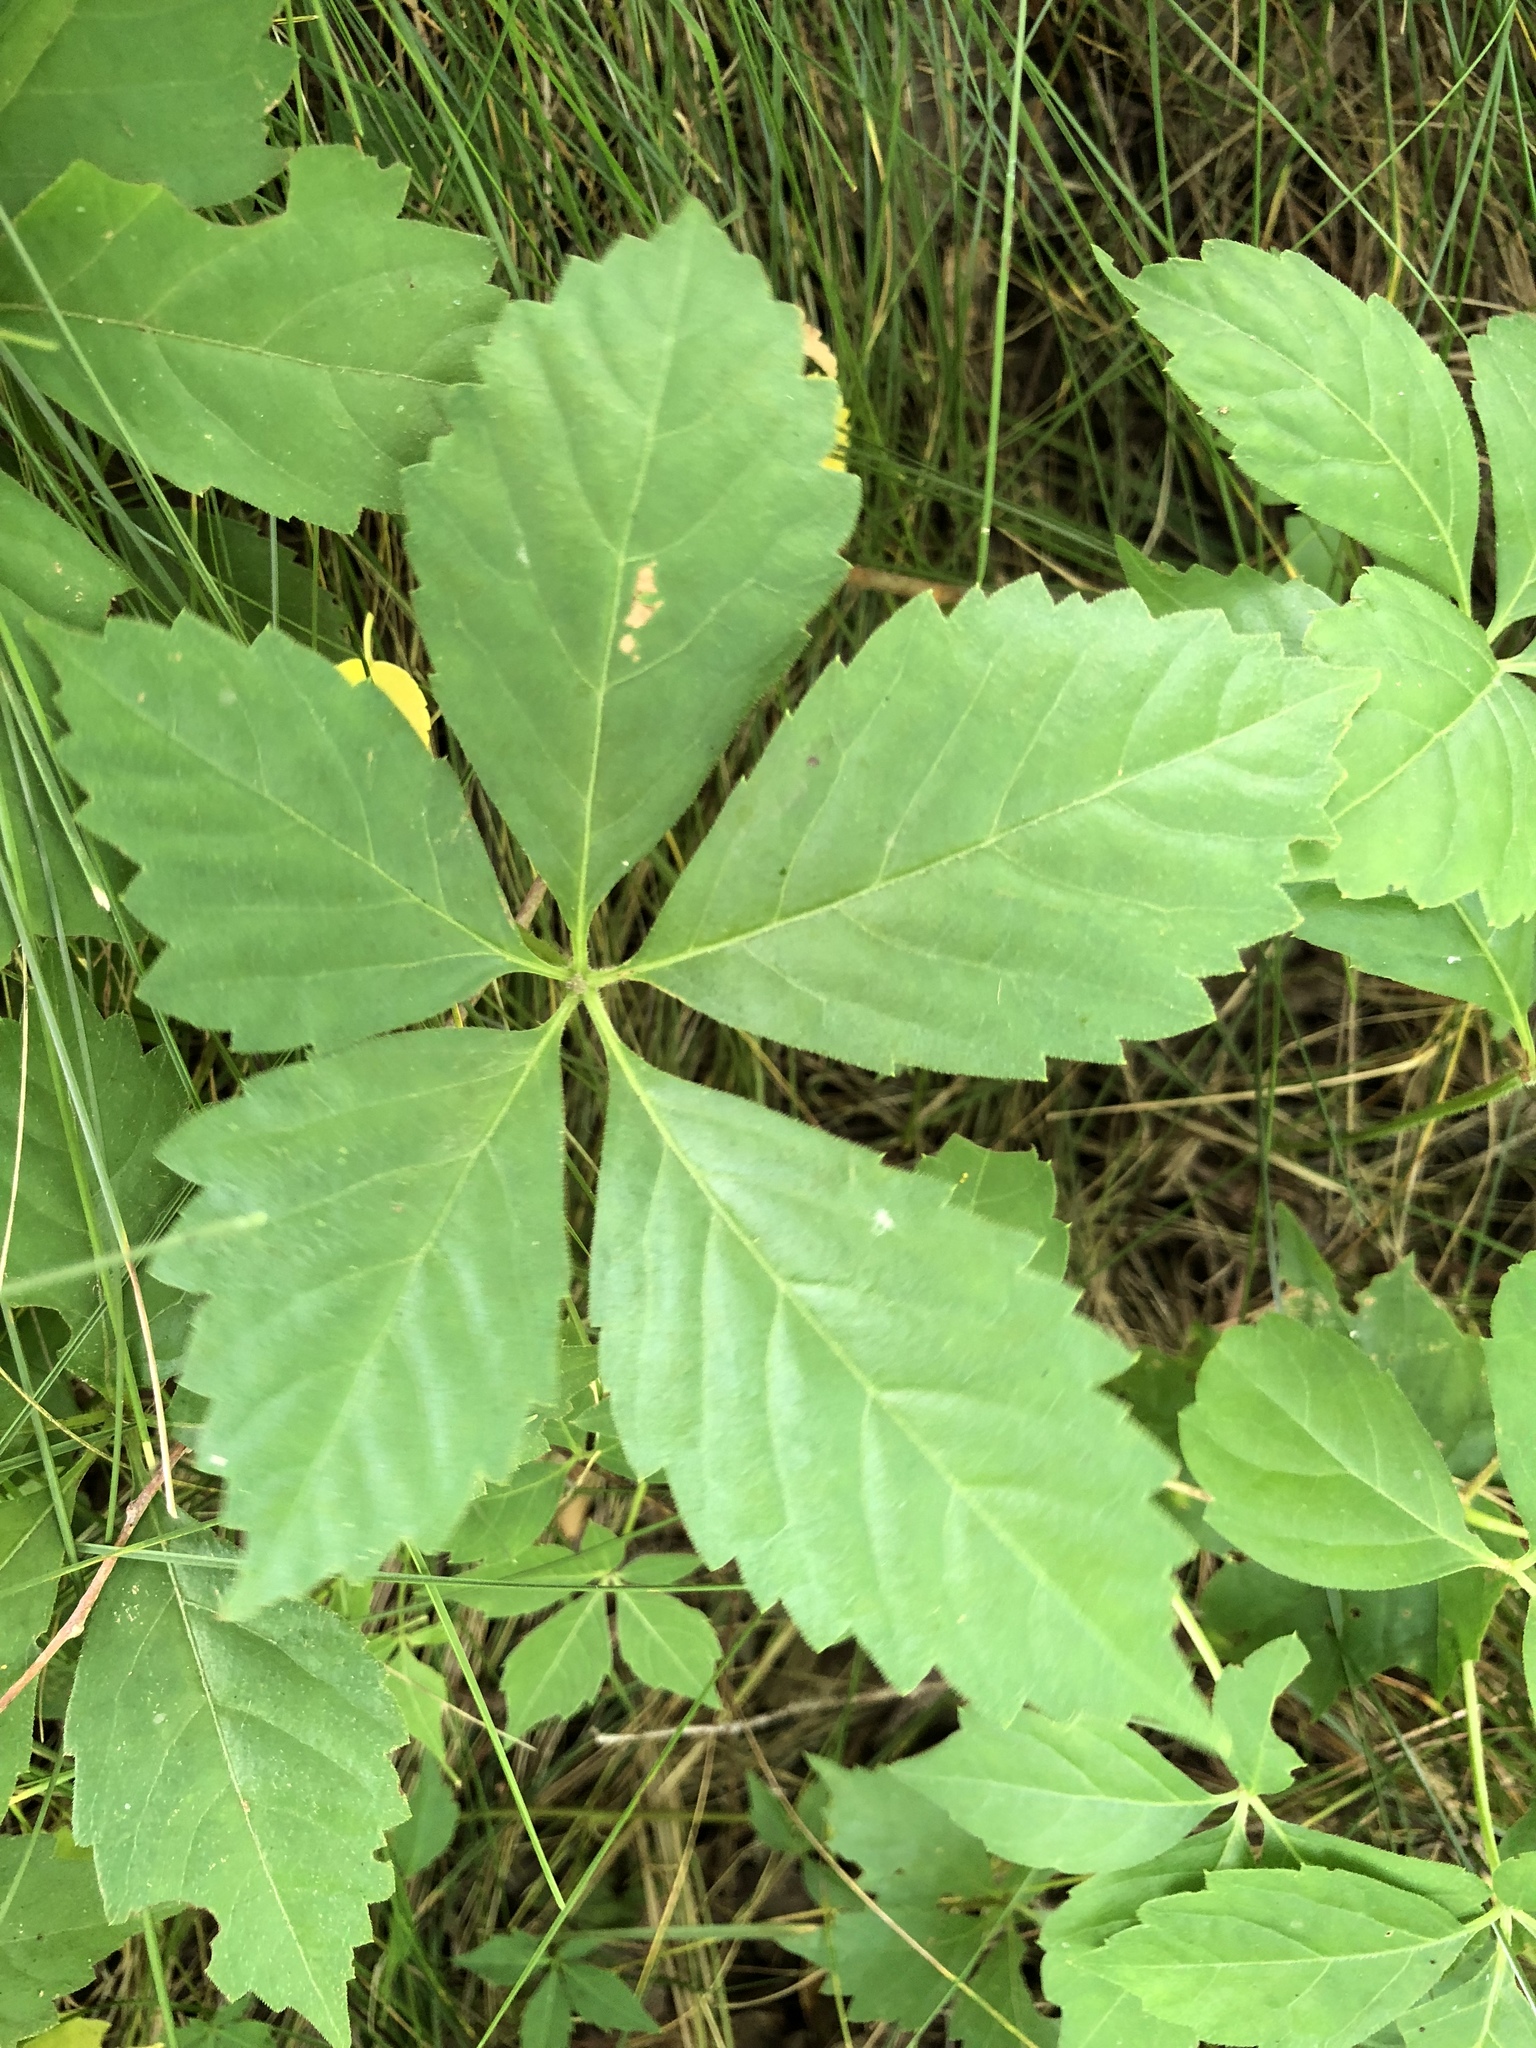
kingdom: Plantae
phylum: Tracheophyta
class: Magnoliopsida
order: Vitales
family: Vitaceae
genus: Parthenocissus
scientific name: Parthenocissus quinquefolia
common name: Virginia-creeper
